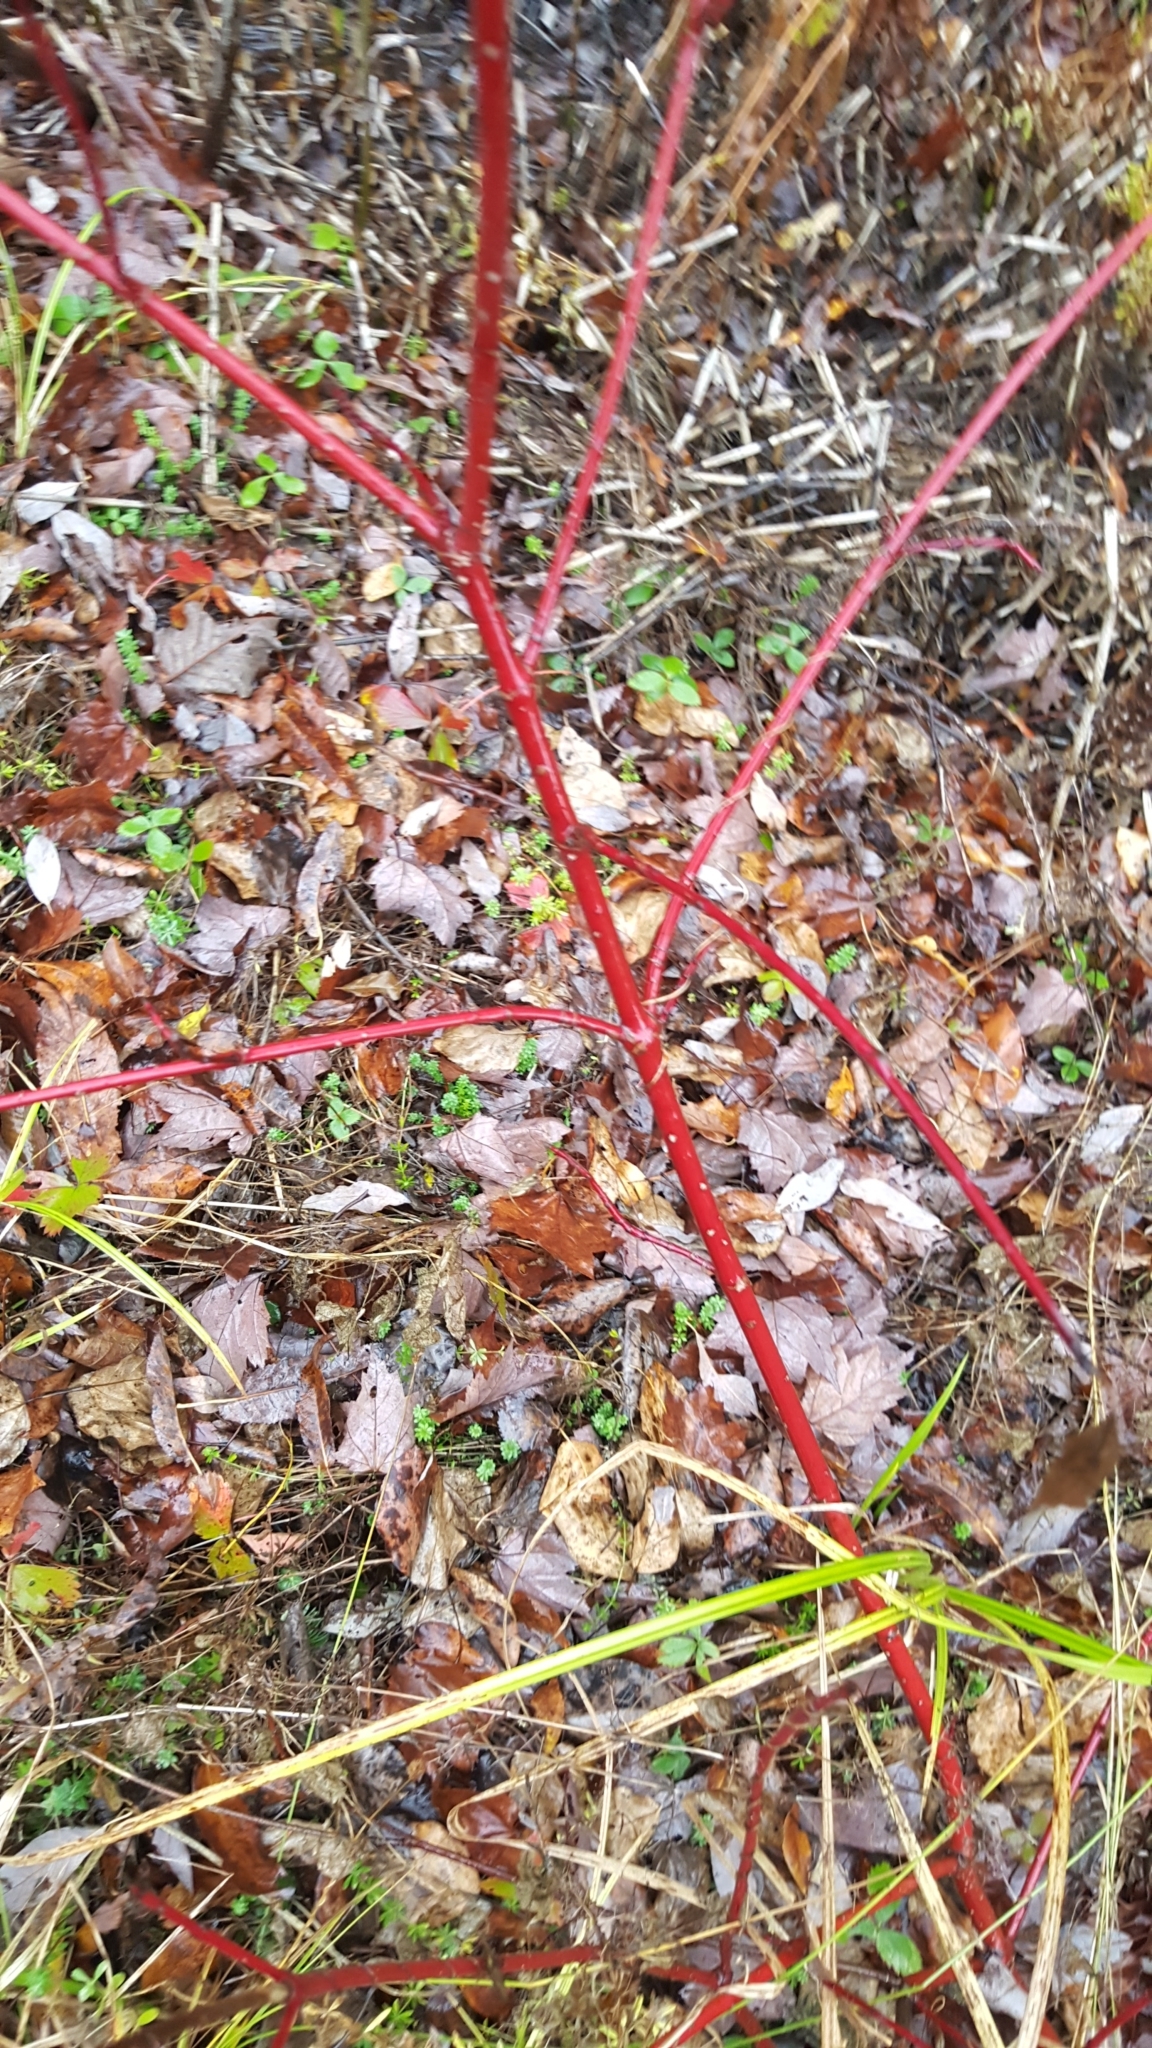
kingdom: Plantae
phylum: Tracheophyta
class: Magnoliopsida
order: Cornales
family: Cornaceae
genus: Cornus
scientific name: Cornus sericea
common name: Red-osier dogwood
